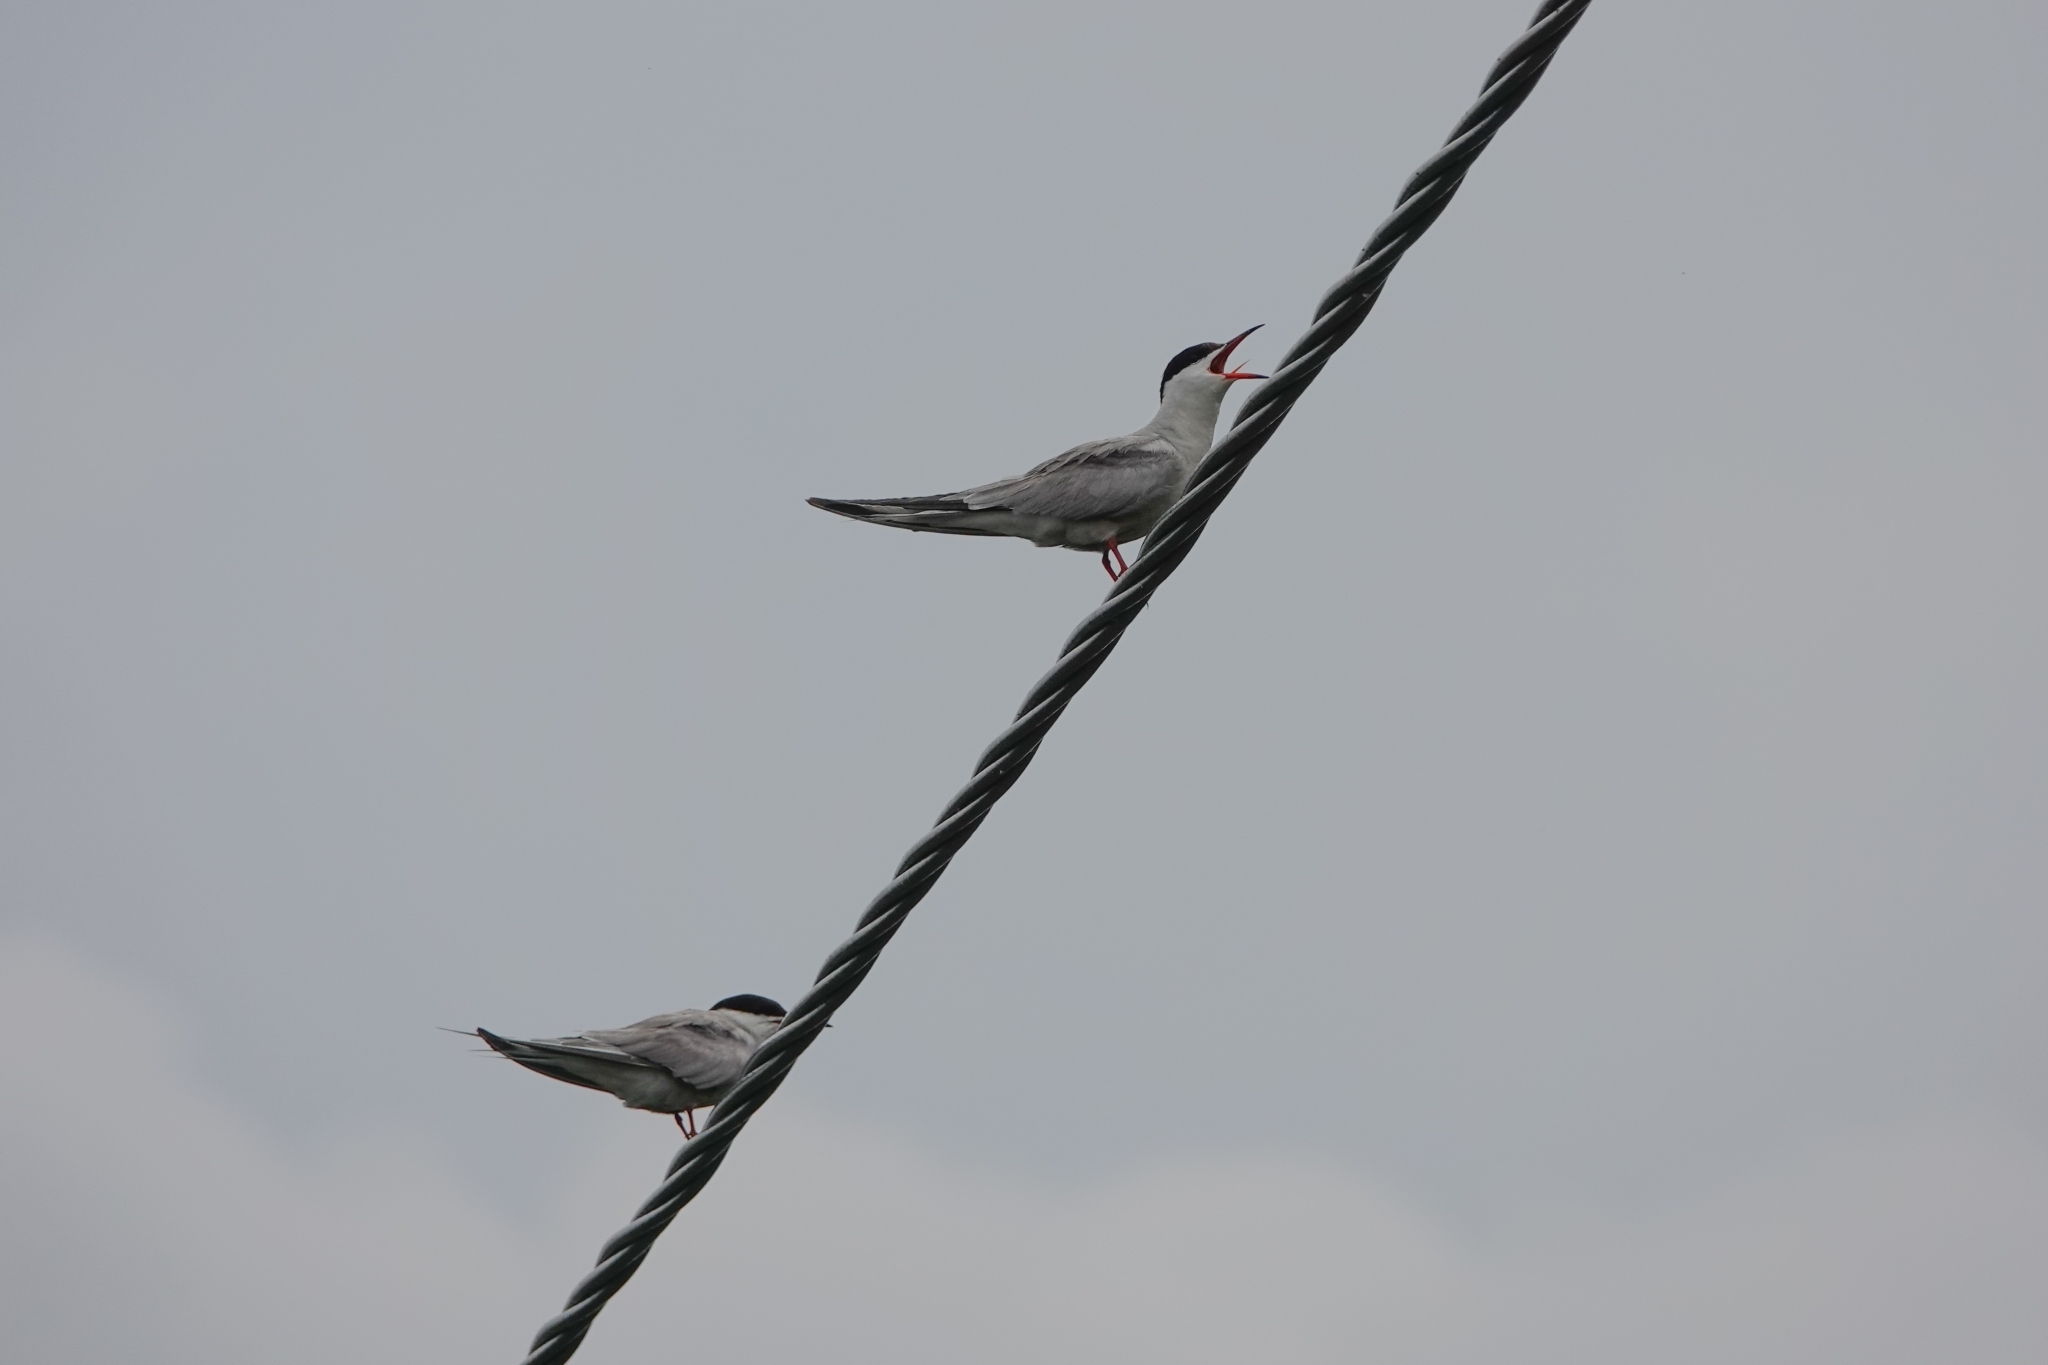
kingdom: Animalia
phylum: Chordata
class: Aves
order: Charadriiformes
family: Laridae
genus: Sterna
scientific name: Sterna hirundo
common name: Common tern
